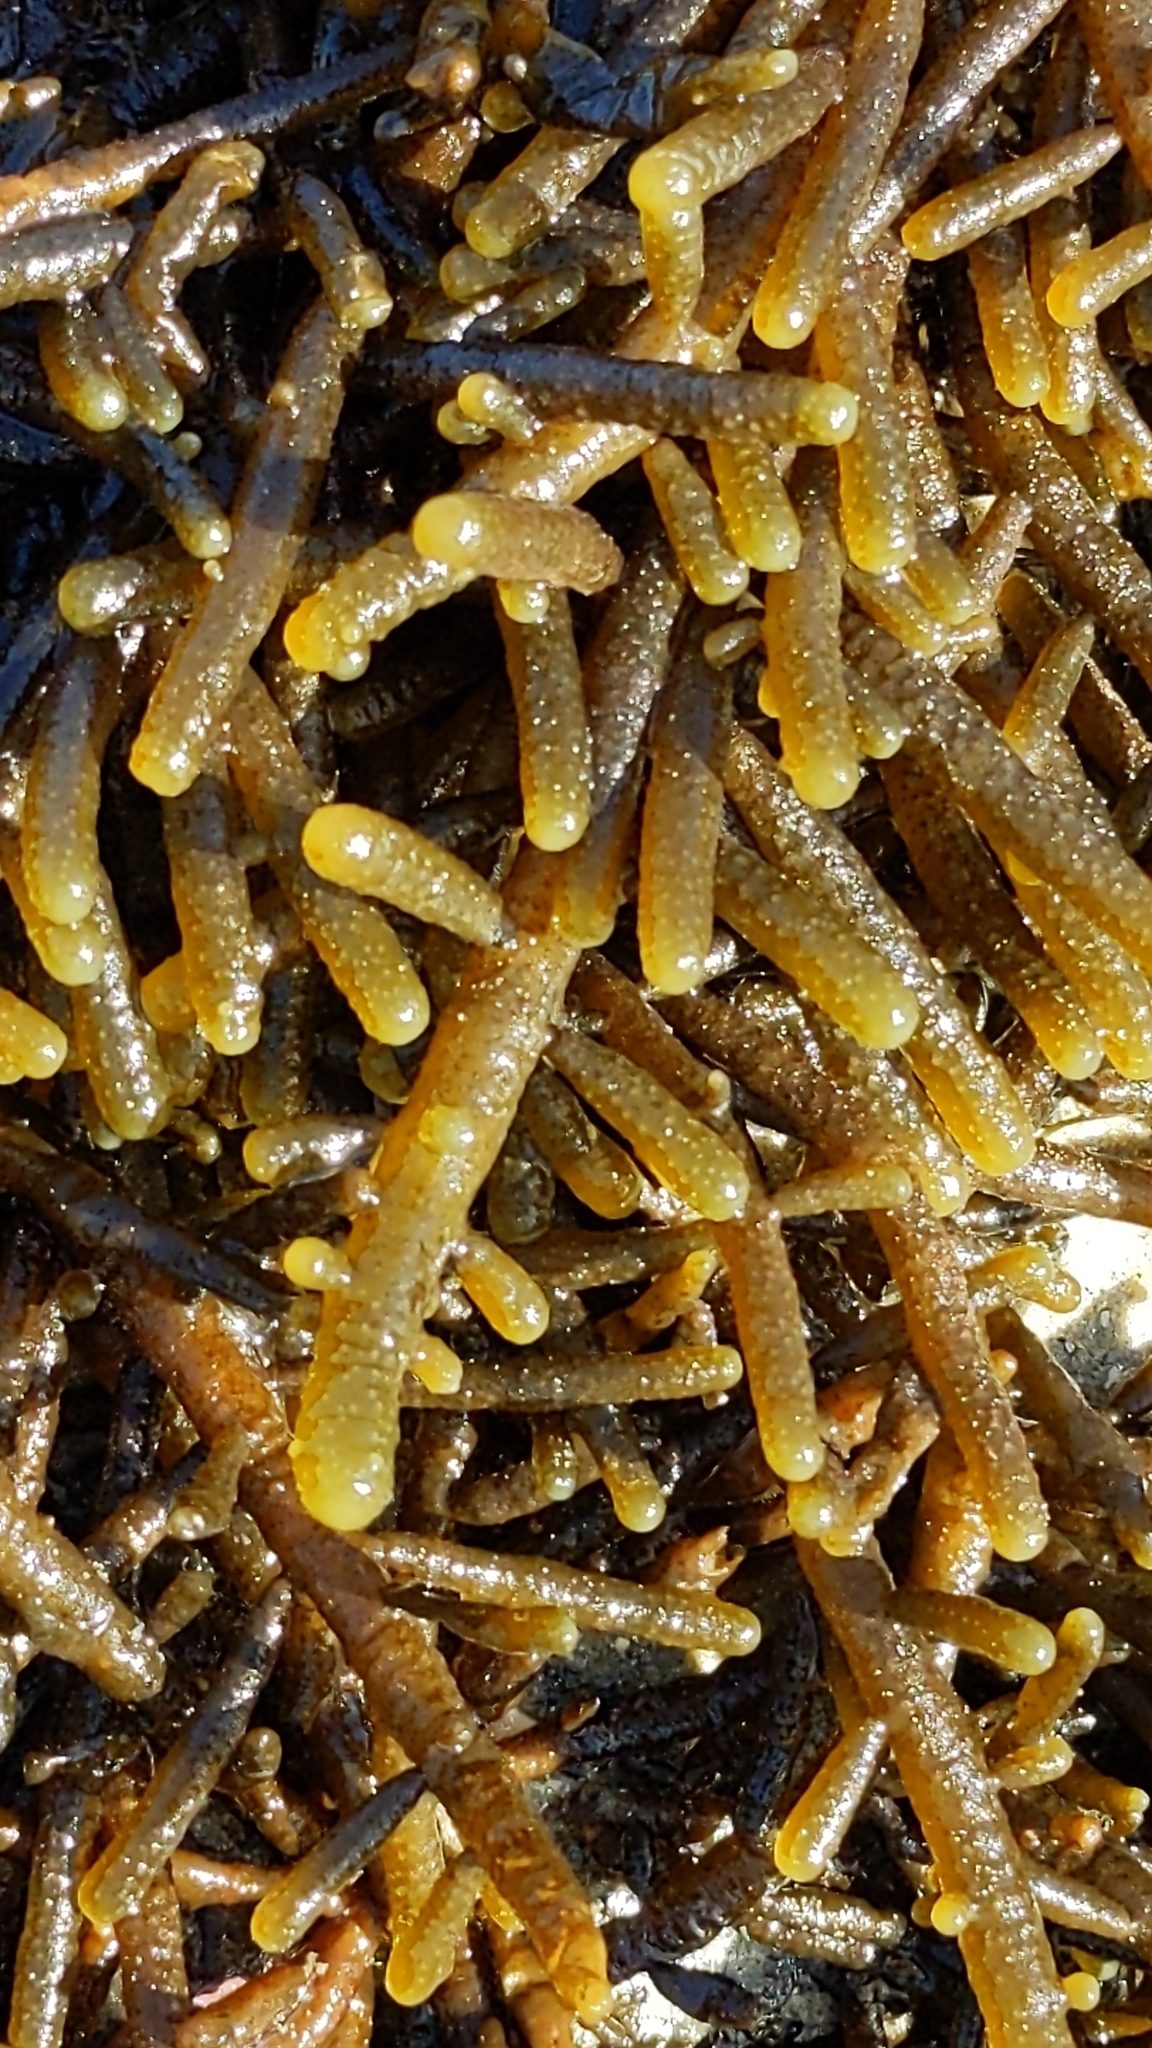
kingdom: Chromista
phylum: Ochrophyta
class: Phaeophyceae
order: Scytothamnales
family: Splachnidiaceae
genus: Splachnidium
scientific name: Splachnidium rugosum
